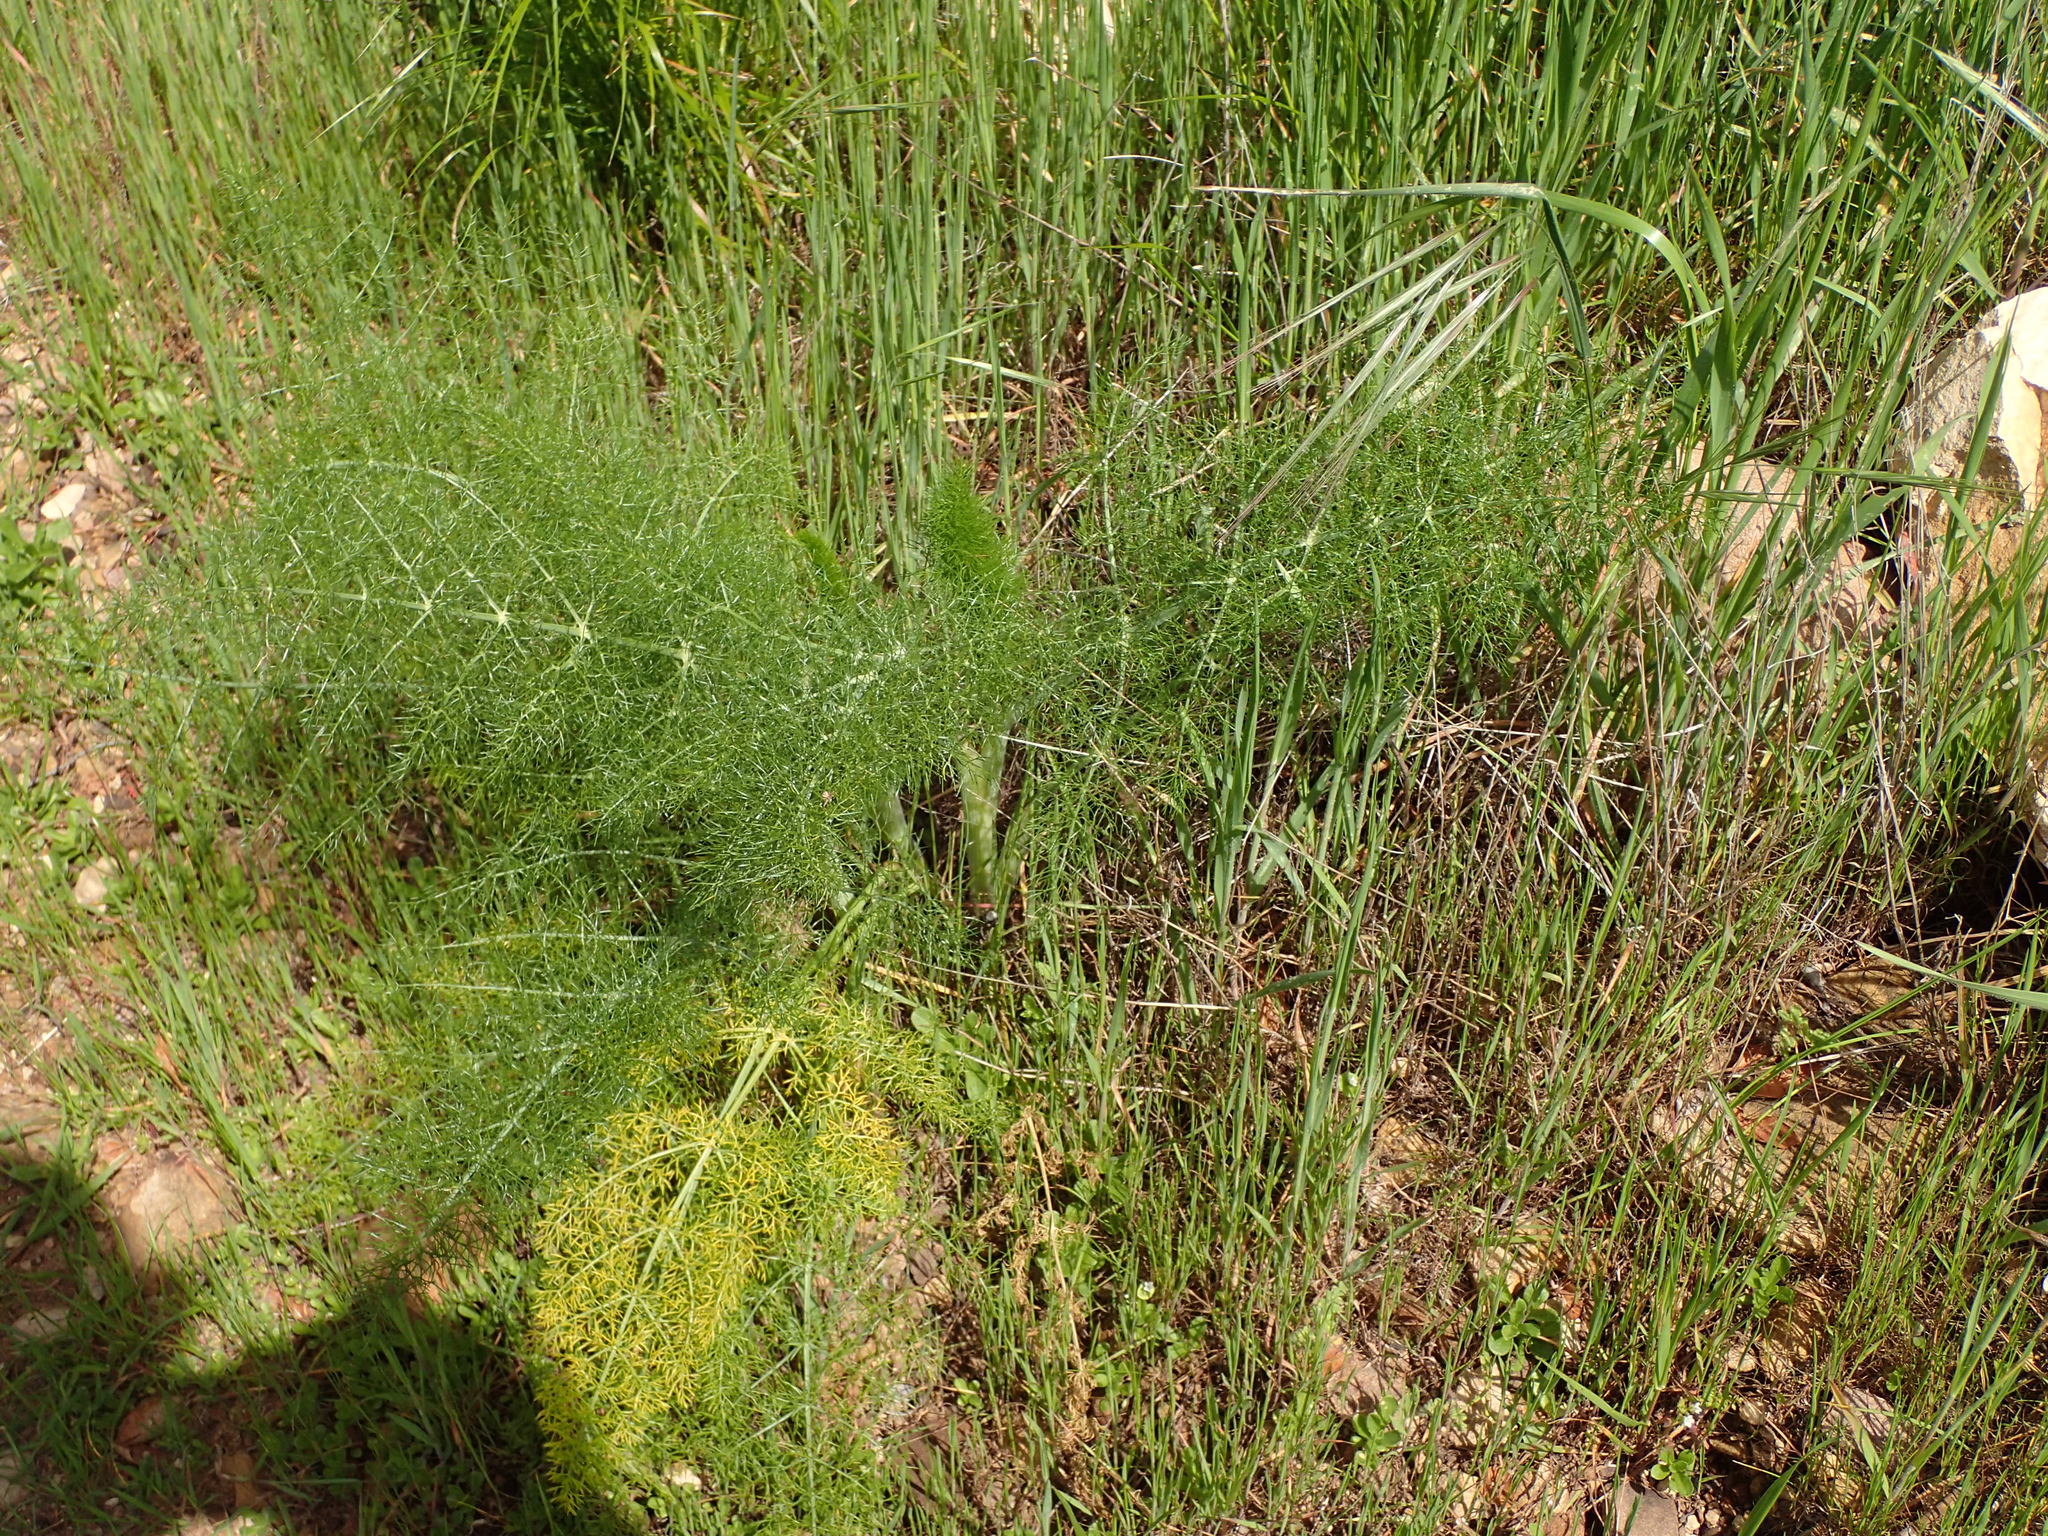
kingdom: Plantae
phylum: Tracheophyta
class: Magnoliopsida
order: Apiales
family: Apiaceae
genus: Foeniculum
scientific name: Foeniculum vulgare
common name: Fennel
